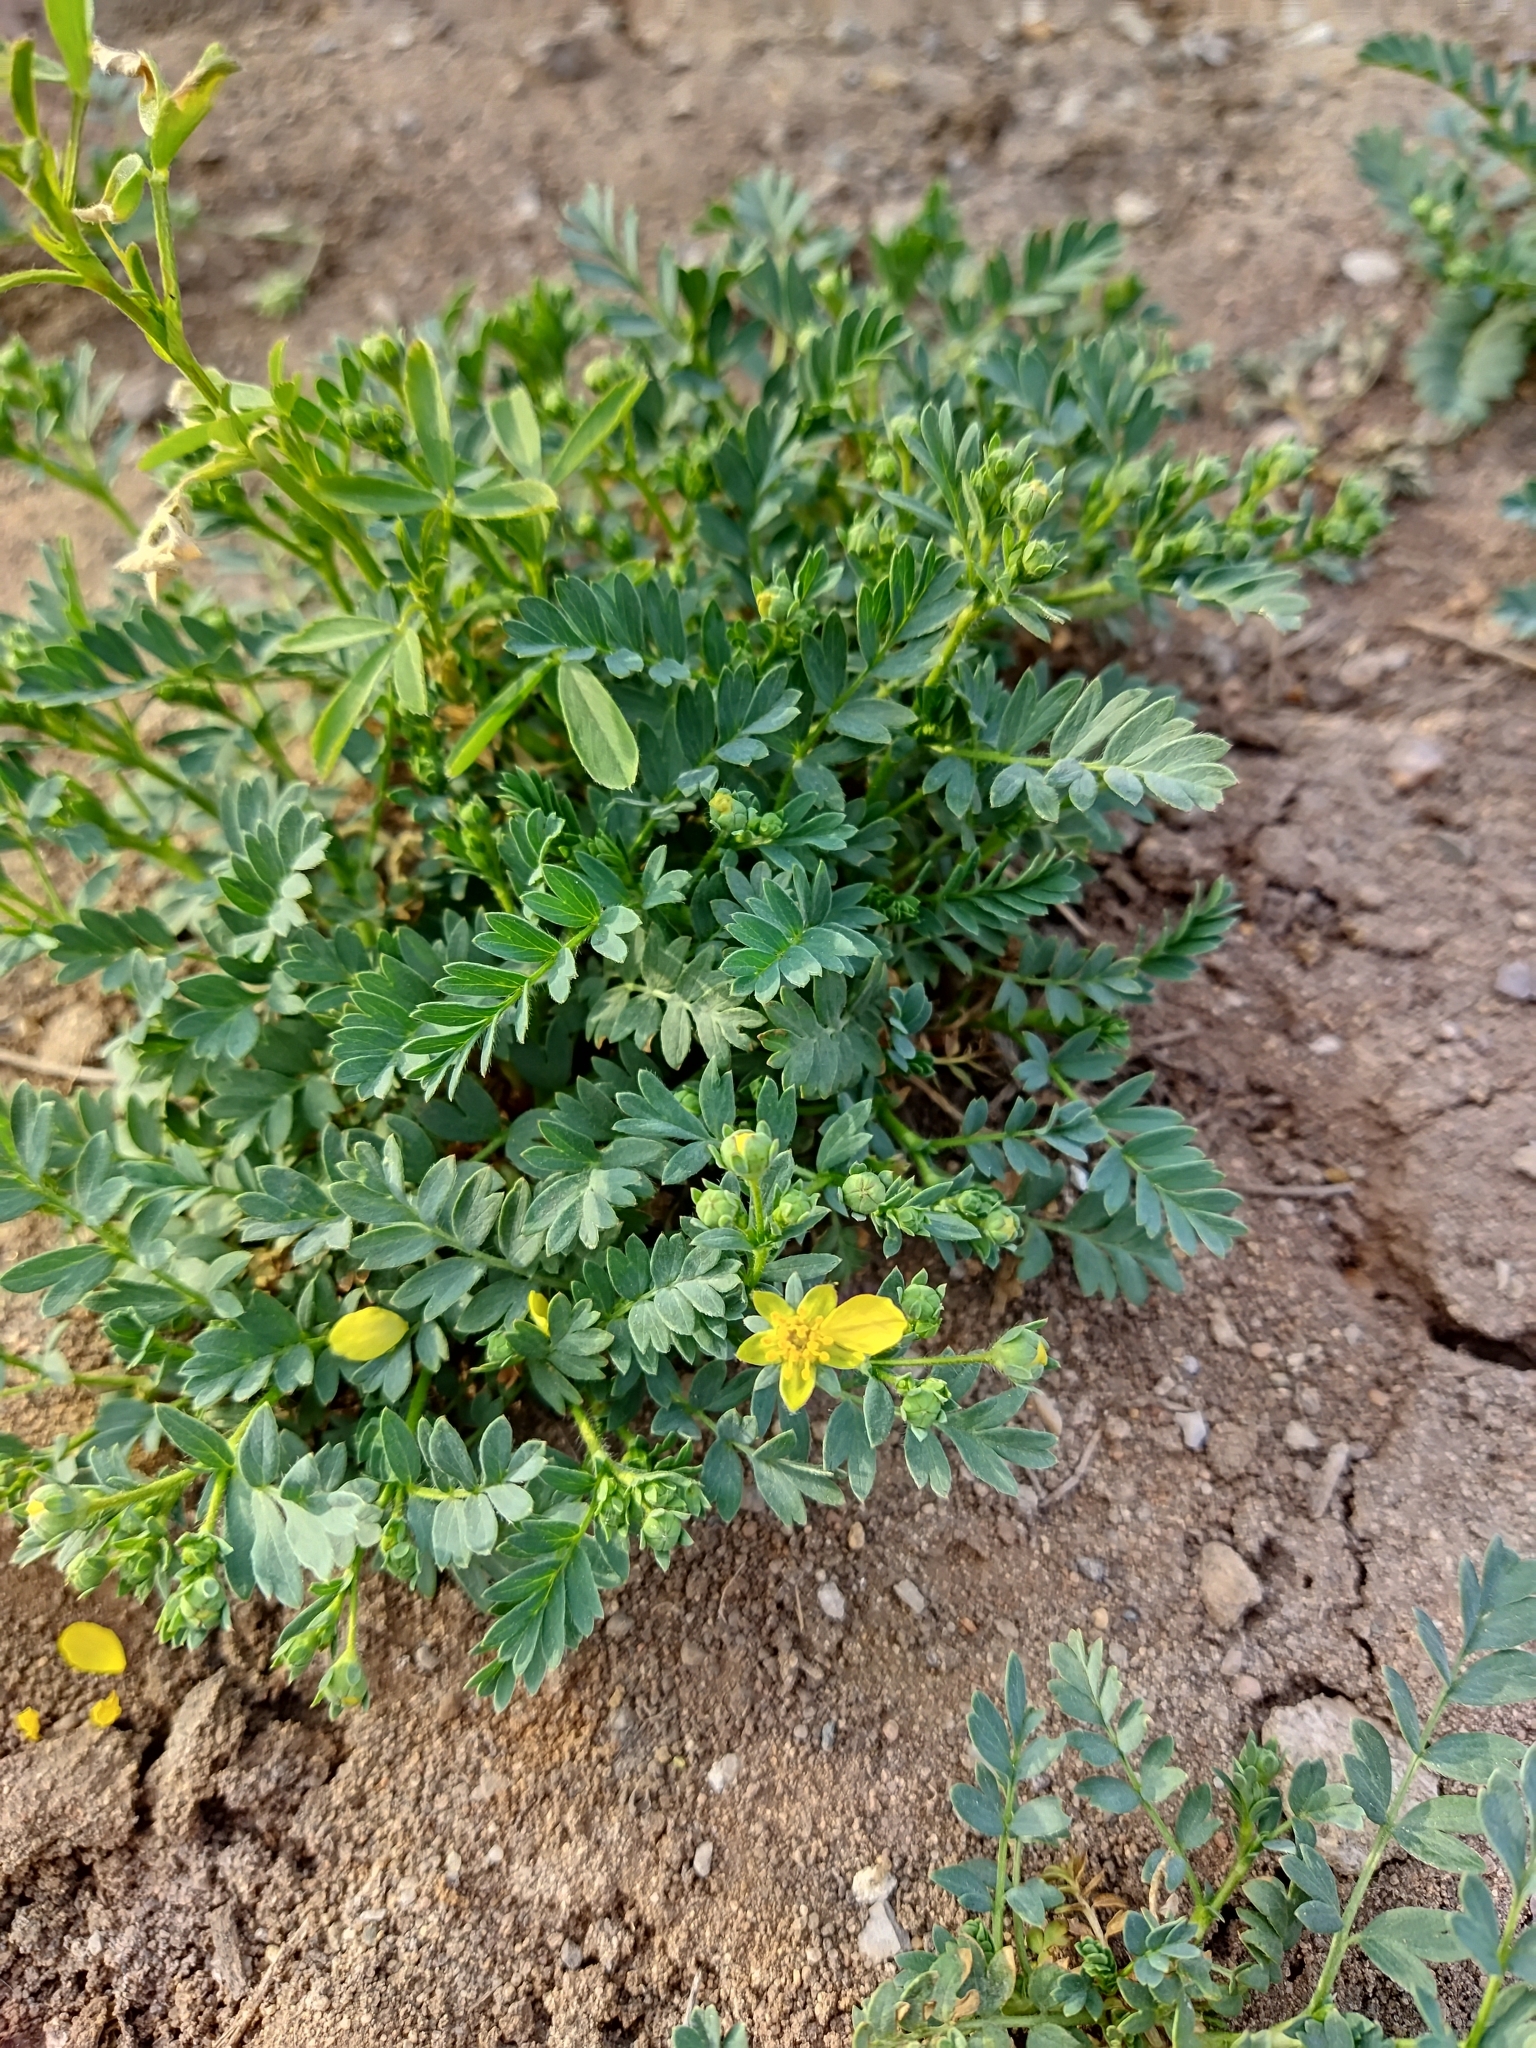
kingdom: Plantae
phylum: Tracheophyta
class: Magnoliopsida
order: Rosales
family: Rosaceae
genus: Sibbaldianthe
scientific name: Sibbaldianthe bifurca
